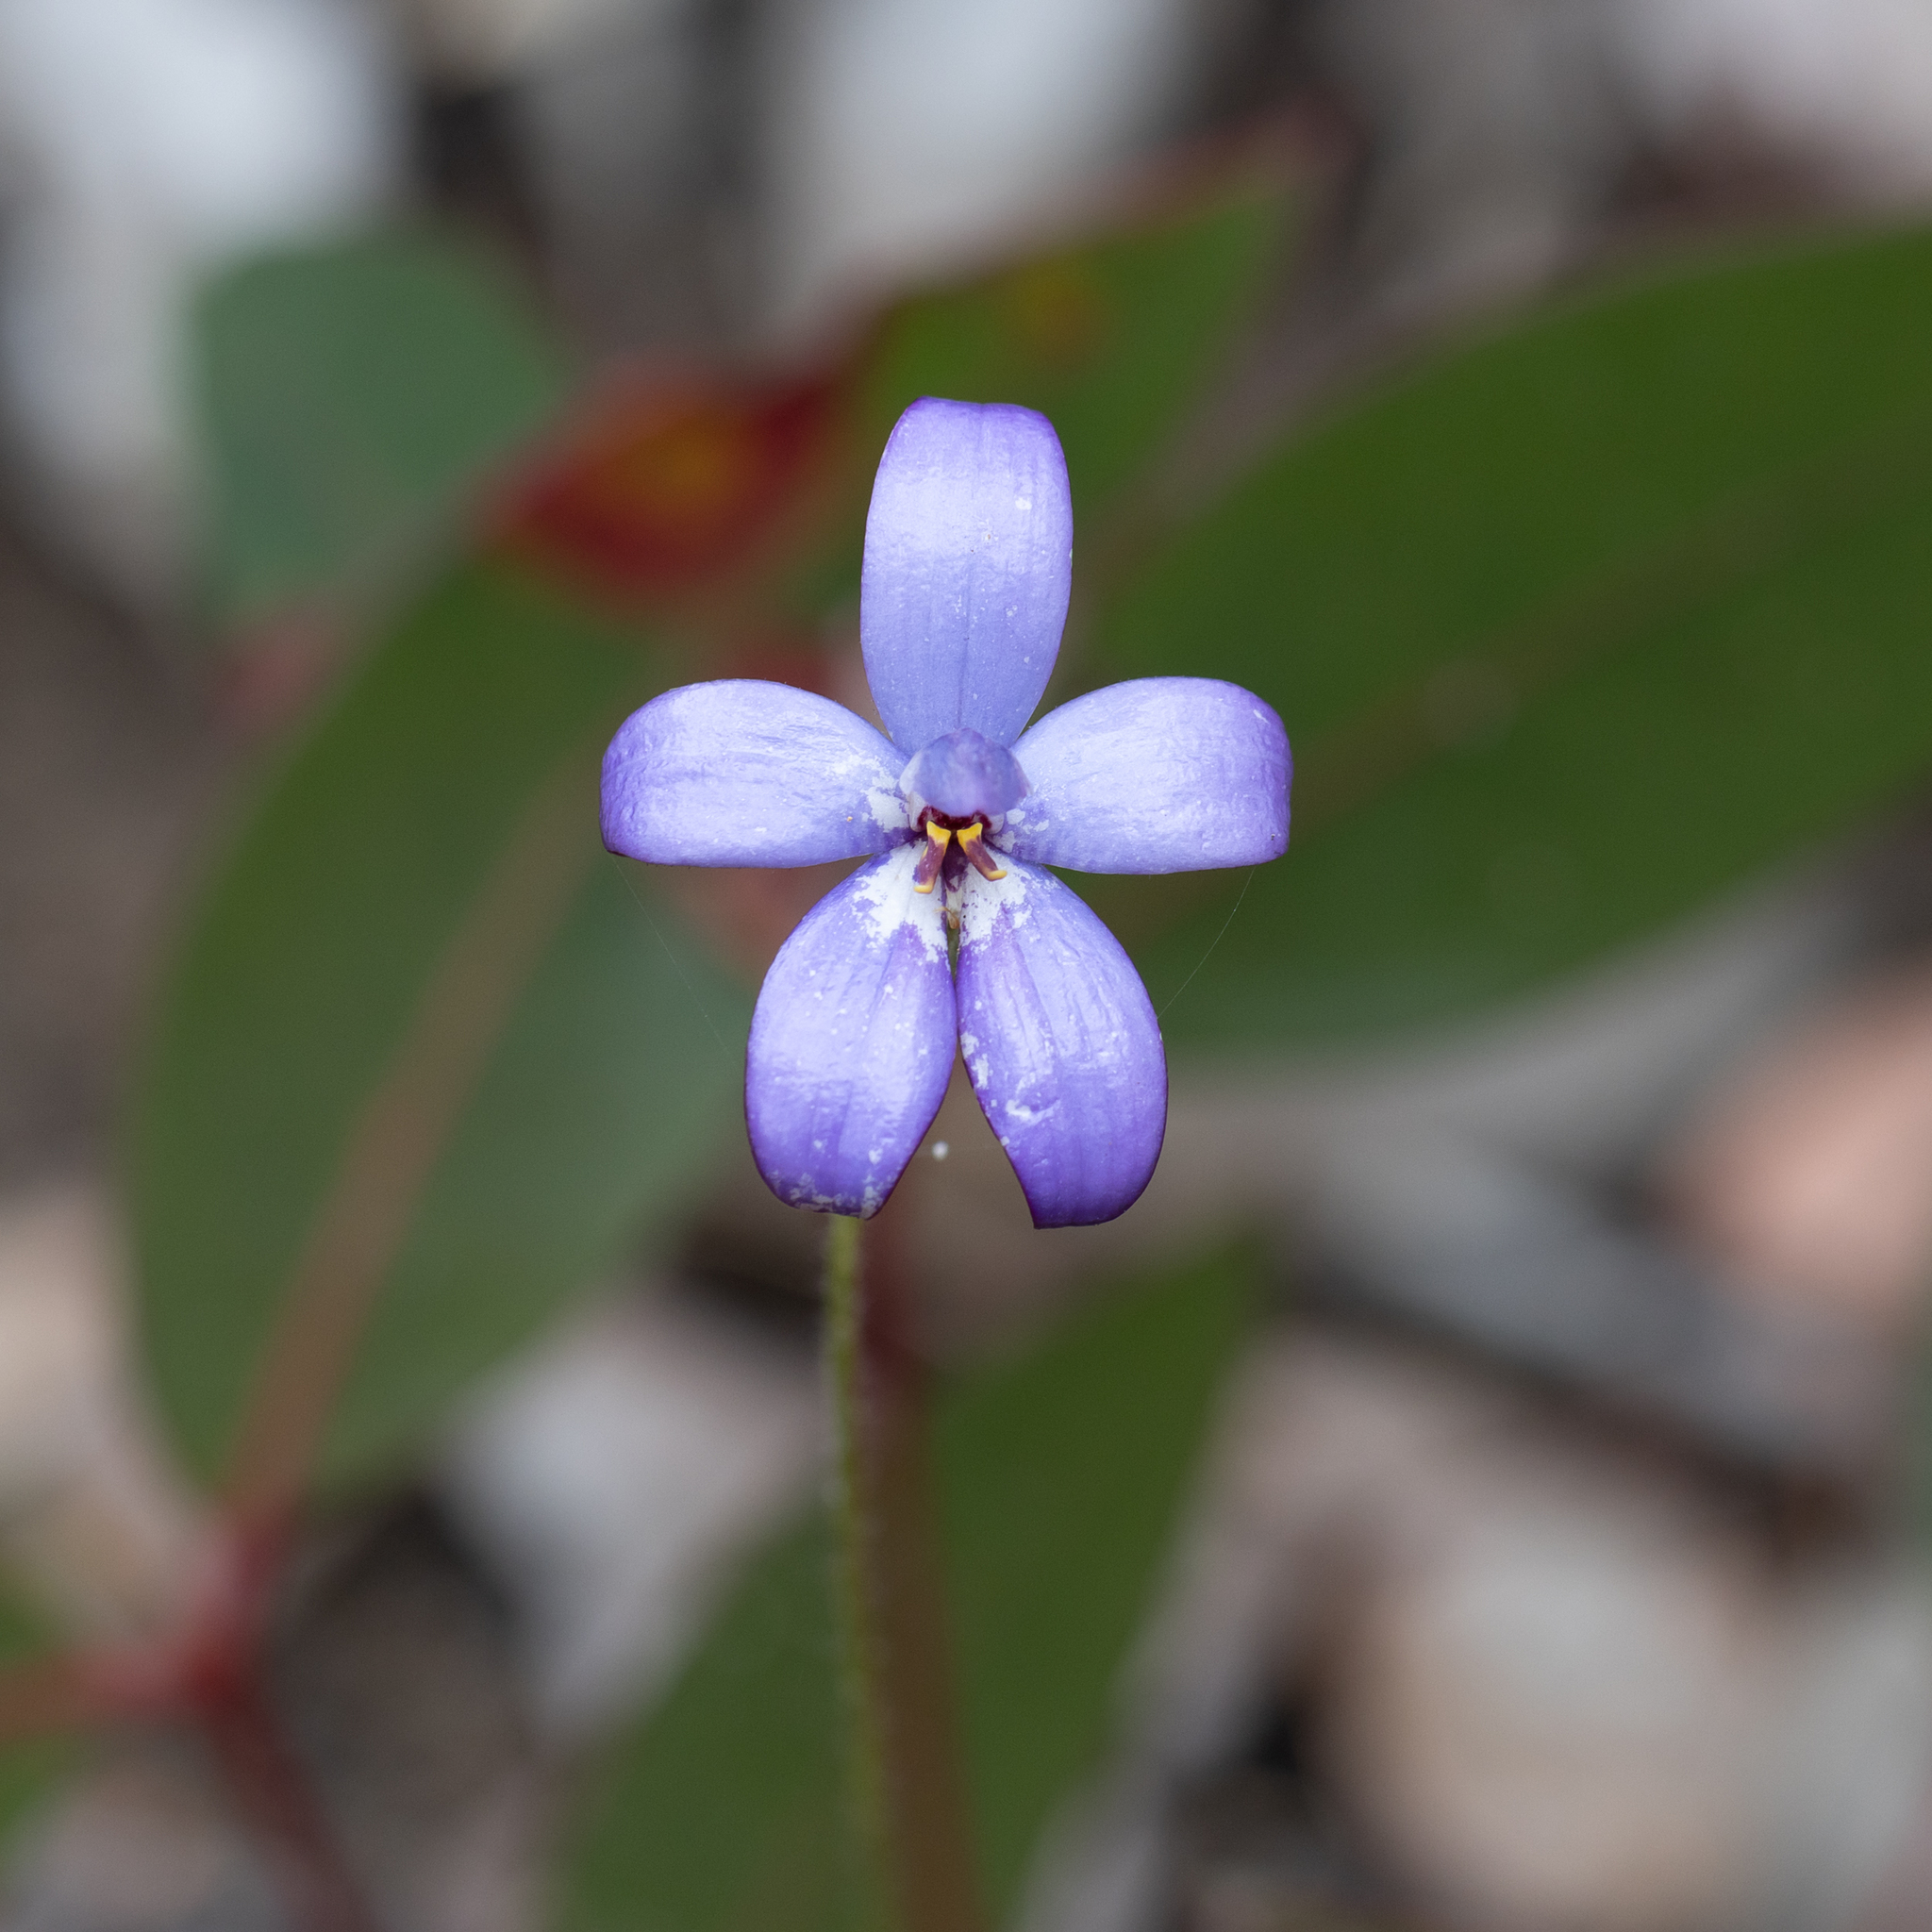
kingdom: Plantae
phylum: Tracheophyta
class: Liliopsida
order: Asparagales
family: Orchidaceae
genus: Caladenia
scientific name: Caladenia brunonis
